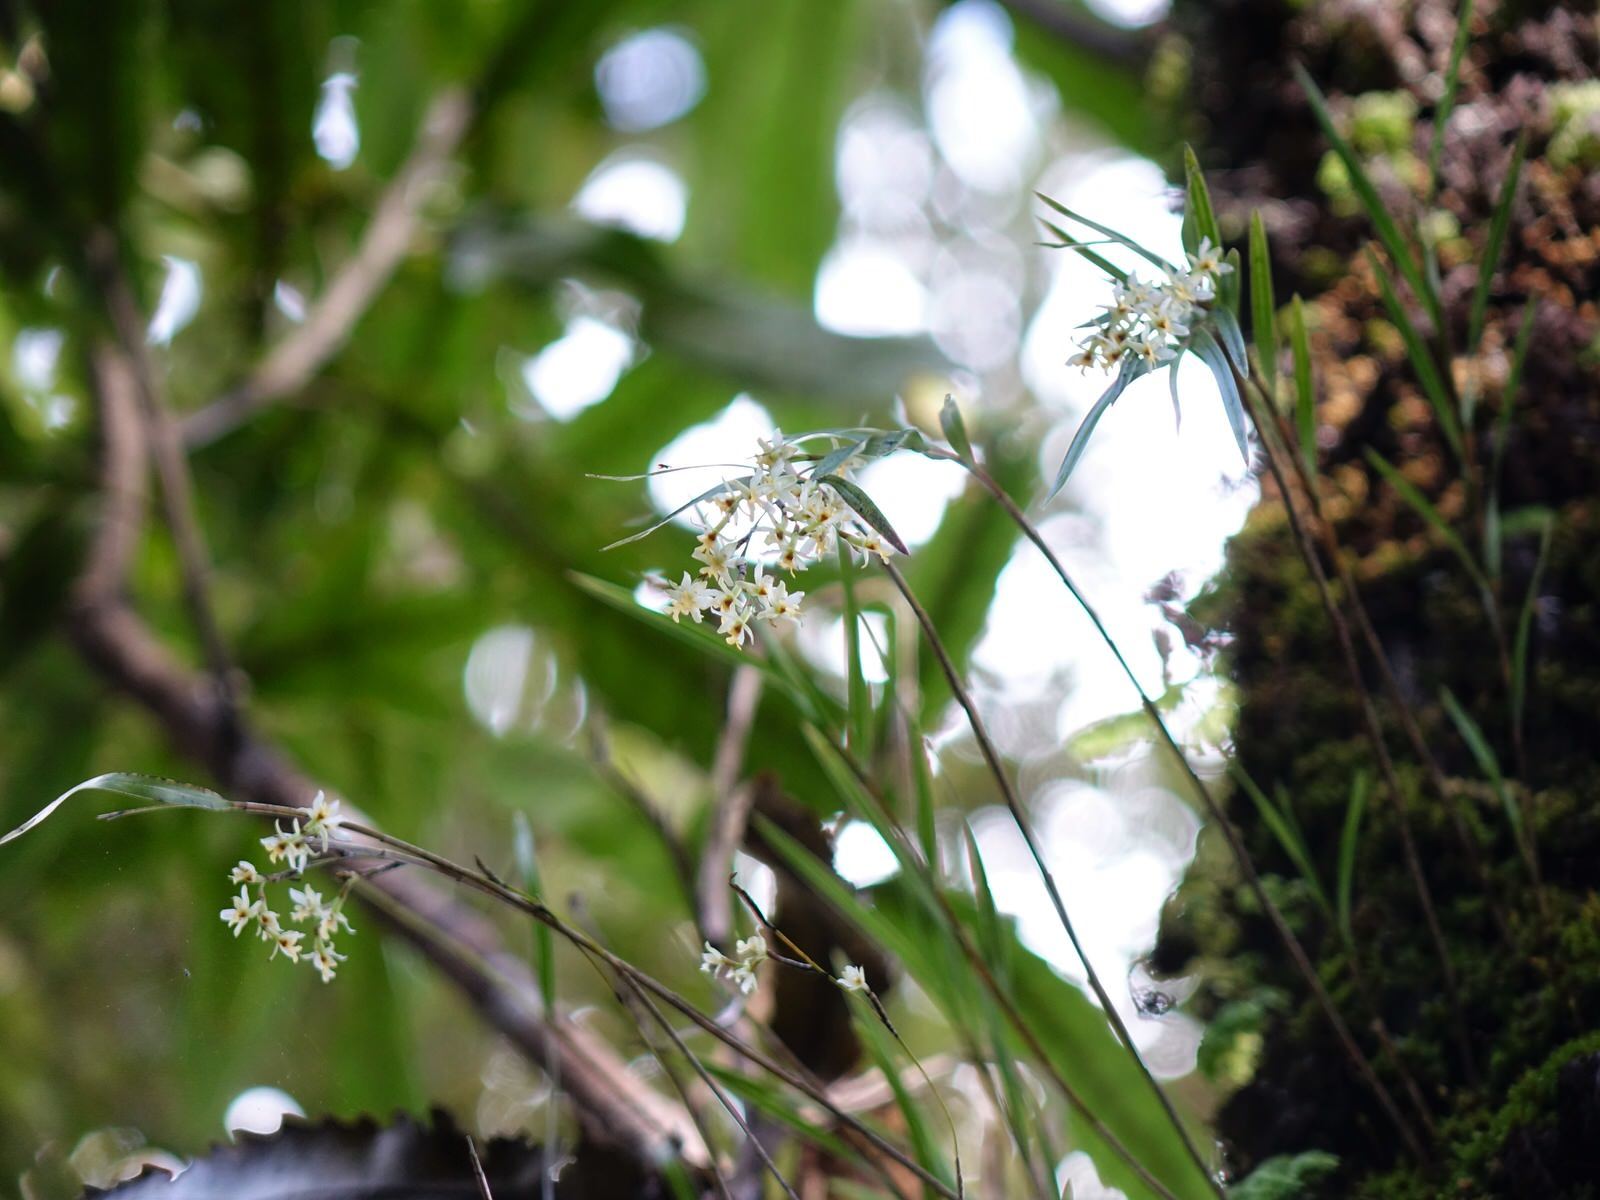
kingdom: Plantae
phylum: Tracheophyta
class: Liliopsida
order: Asparagales
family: Orchidaceae
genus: Earina
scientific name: Earina mucronata
